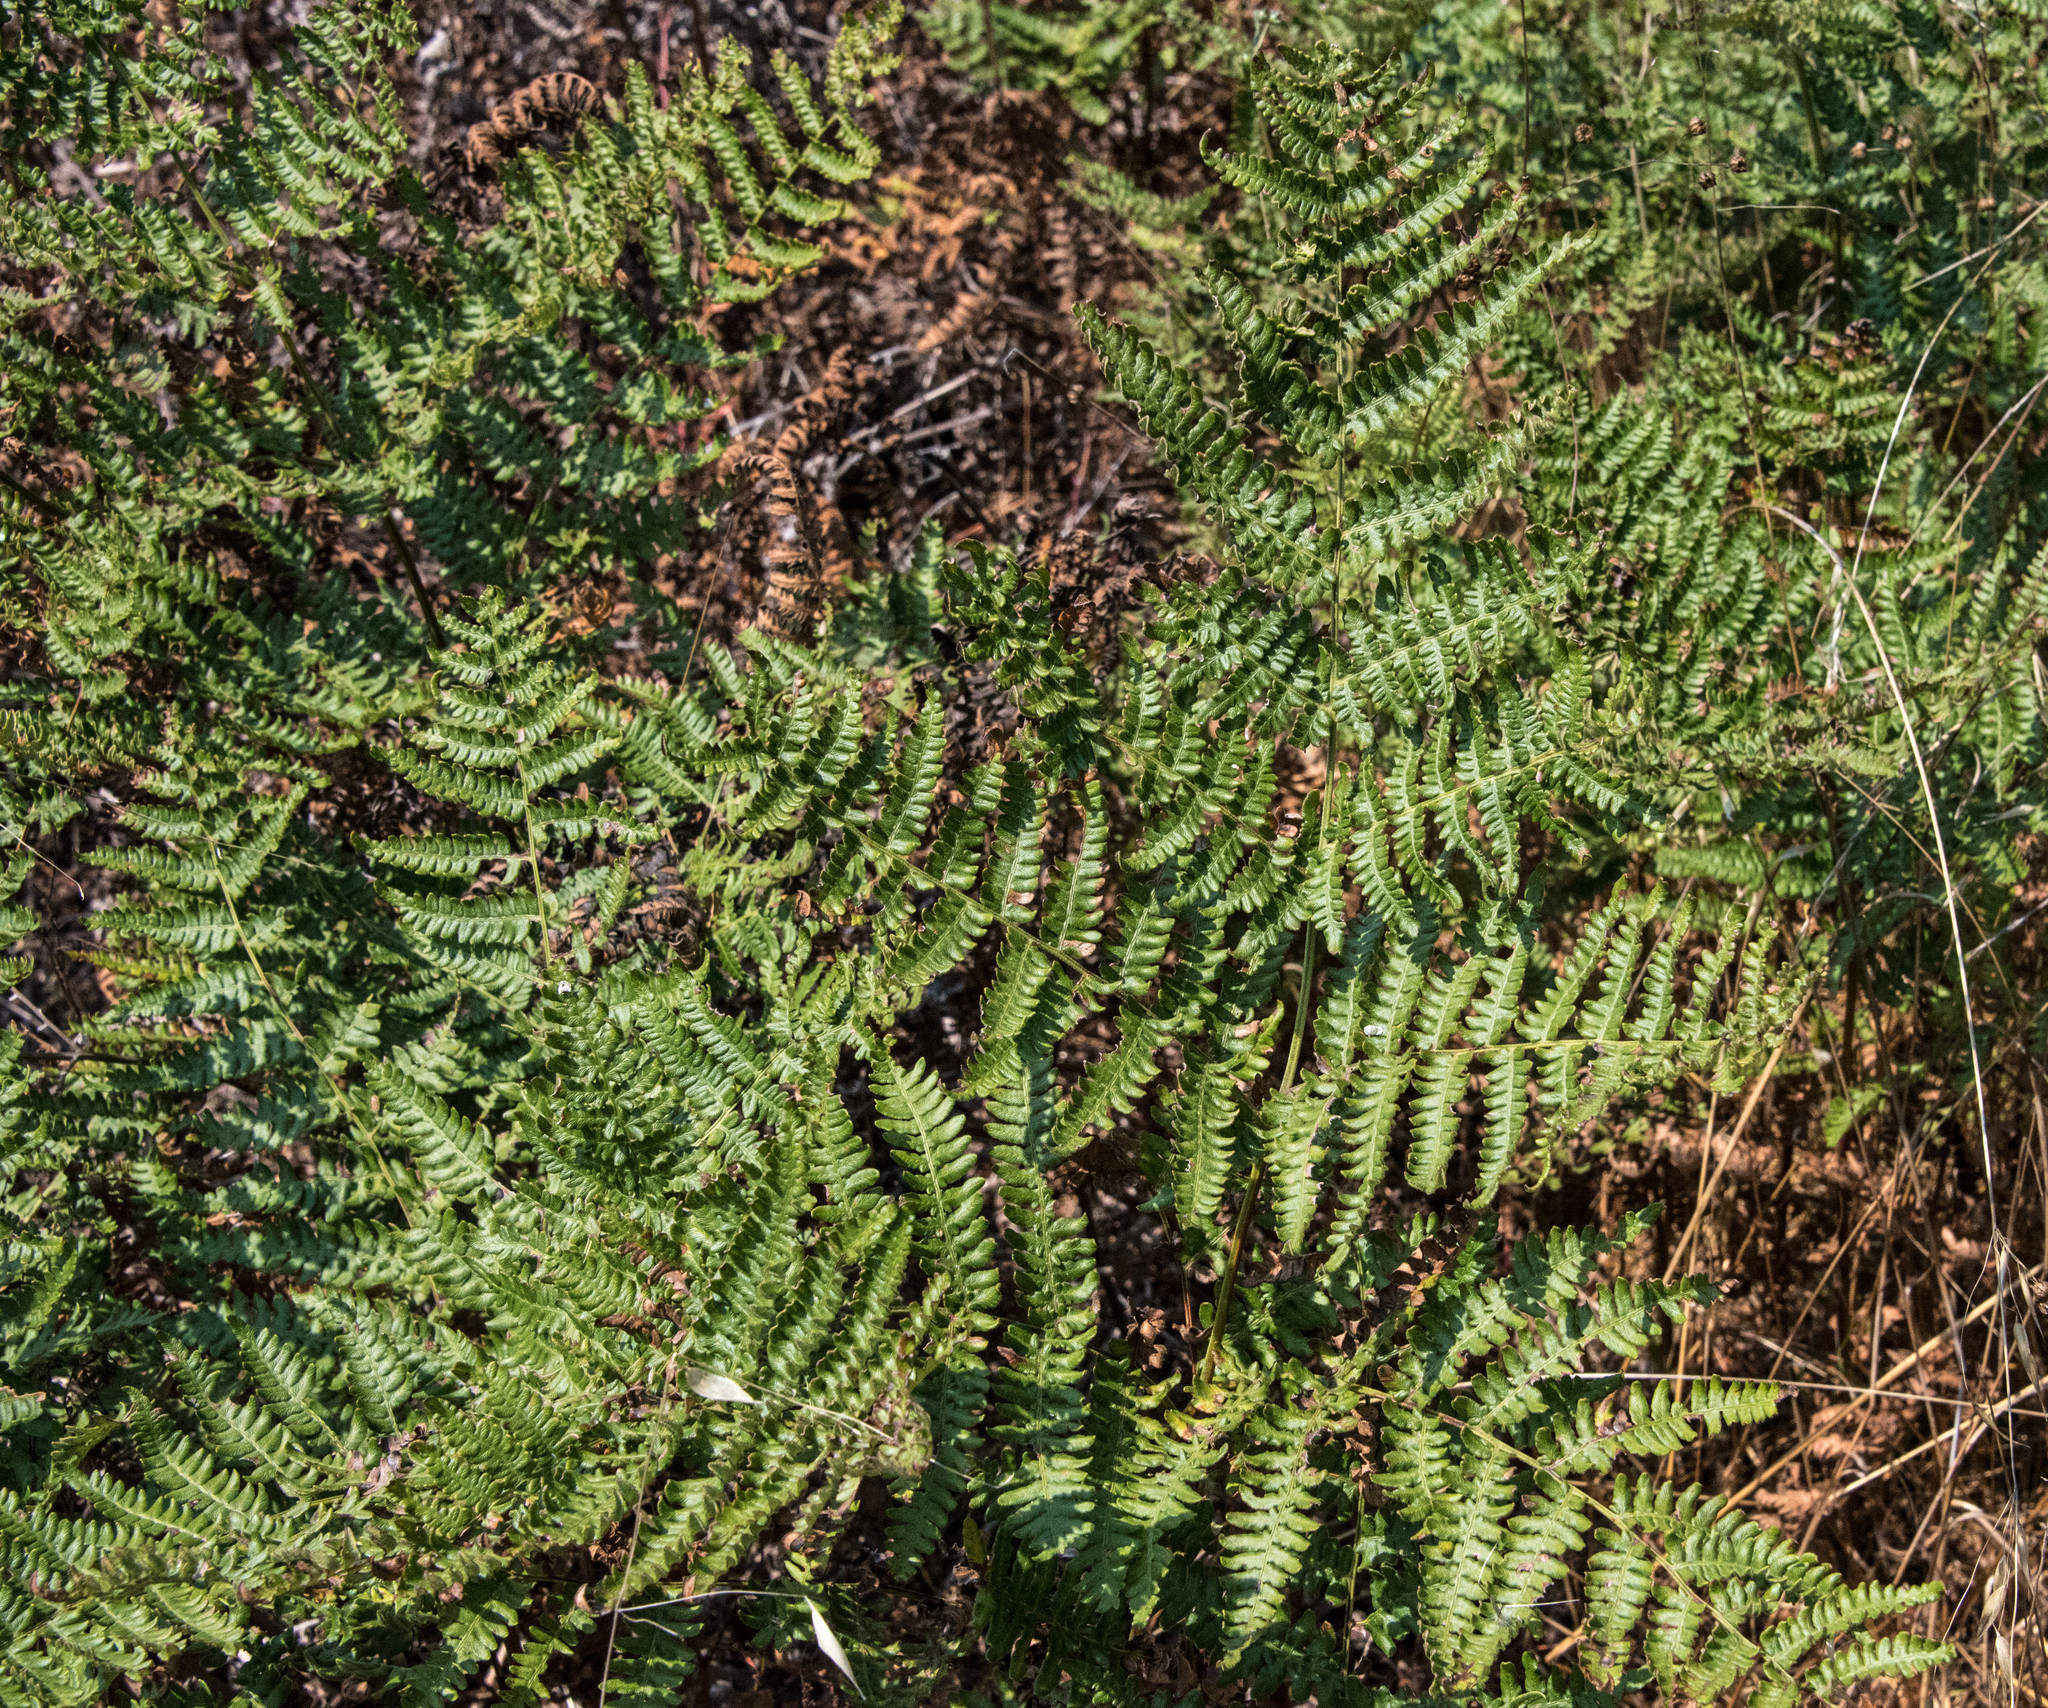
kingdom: Plantae
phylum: Tracheophyta
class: Polypodiopsida
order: Polypodiales
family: Dennstaedtiaceae
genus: Pteridium
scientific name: Pteridium aquilinum
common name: Bracken
